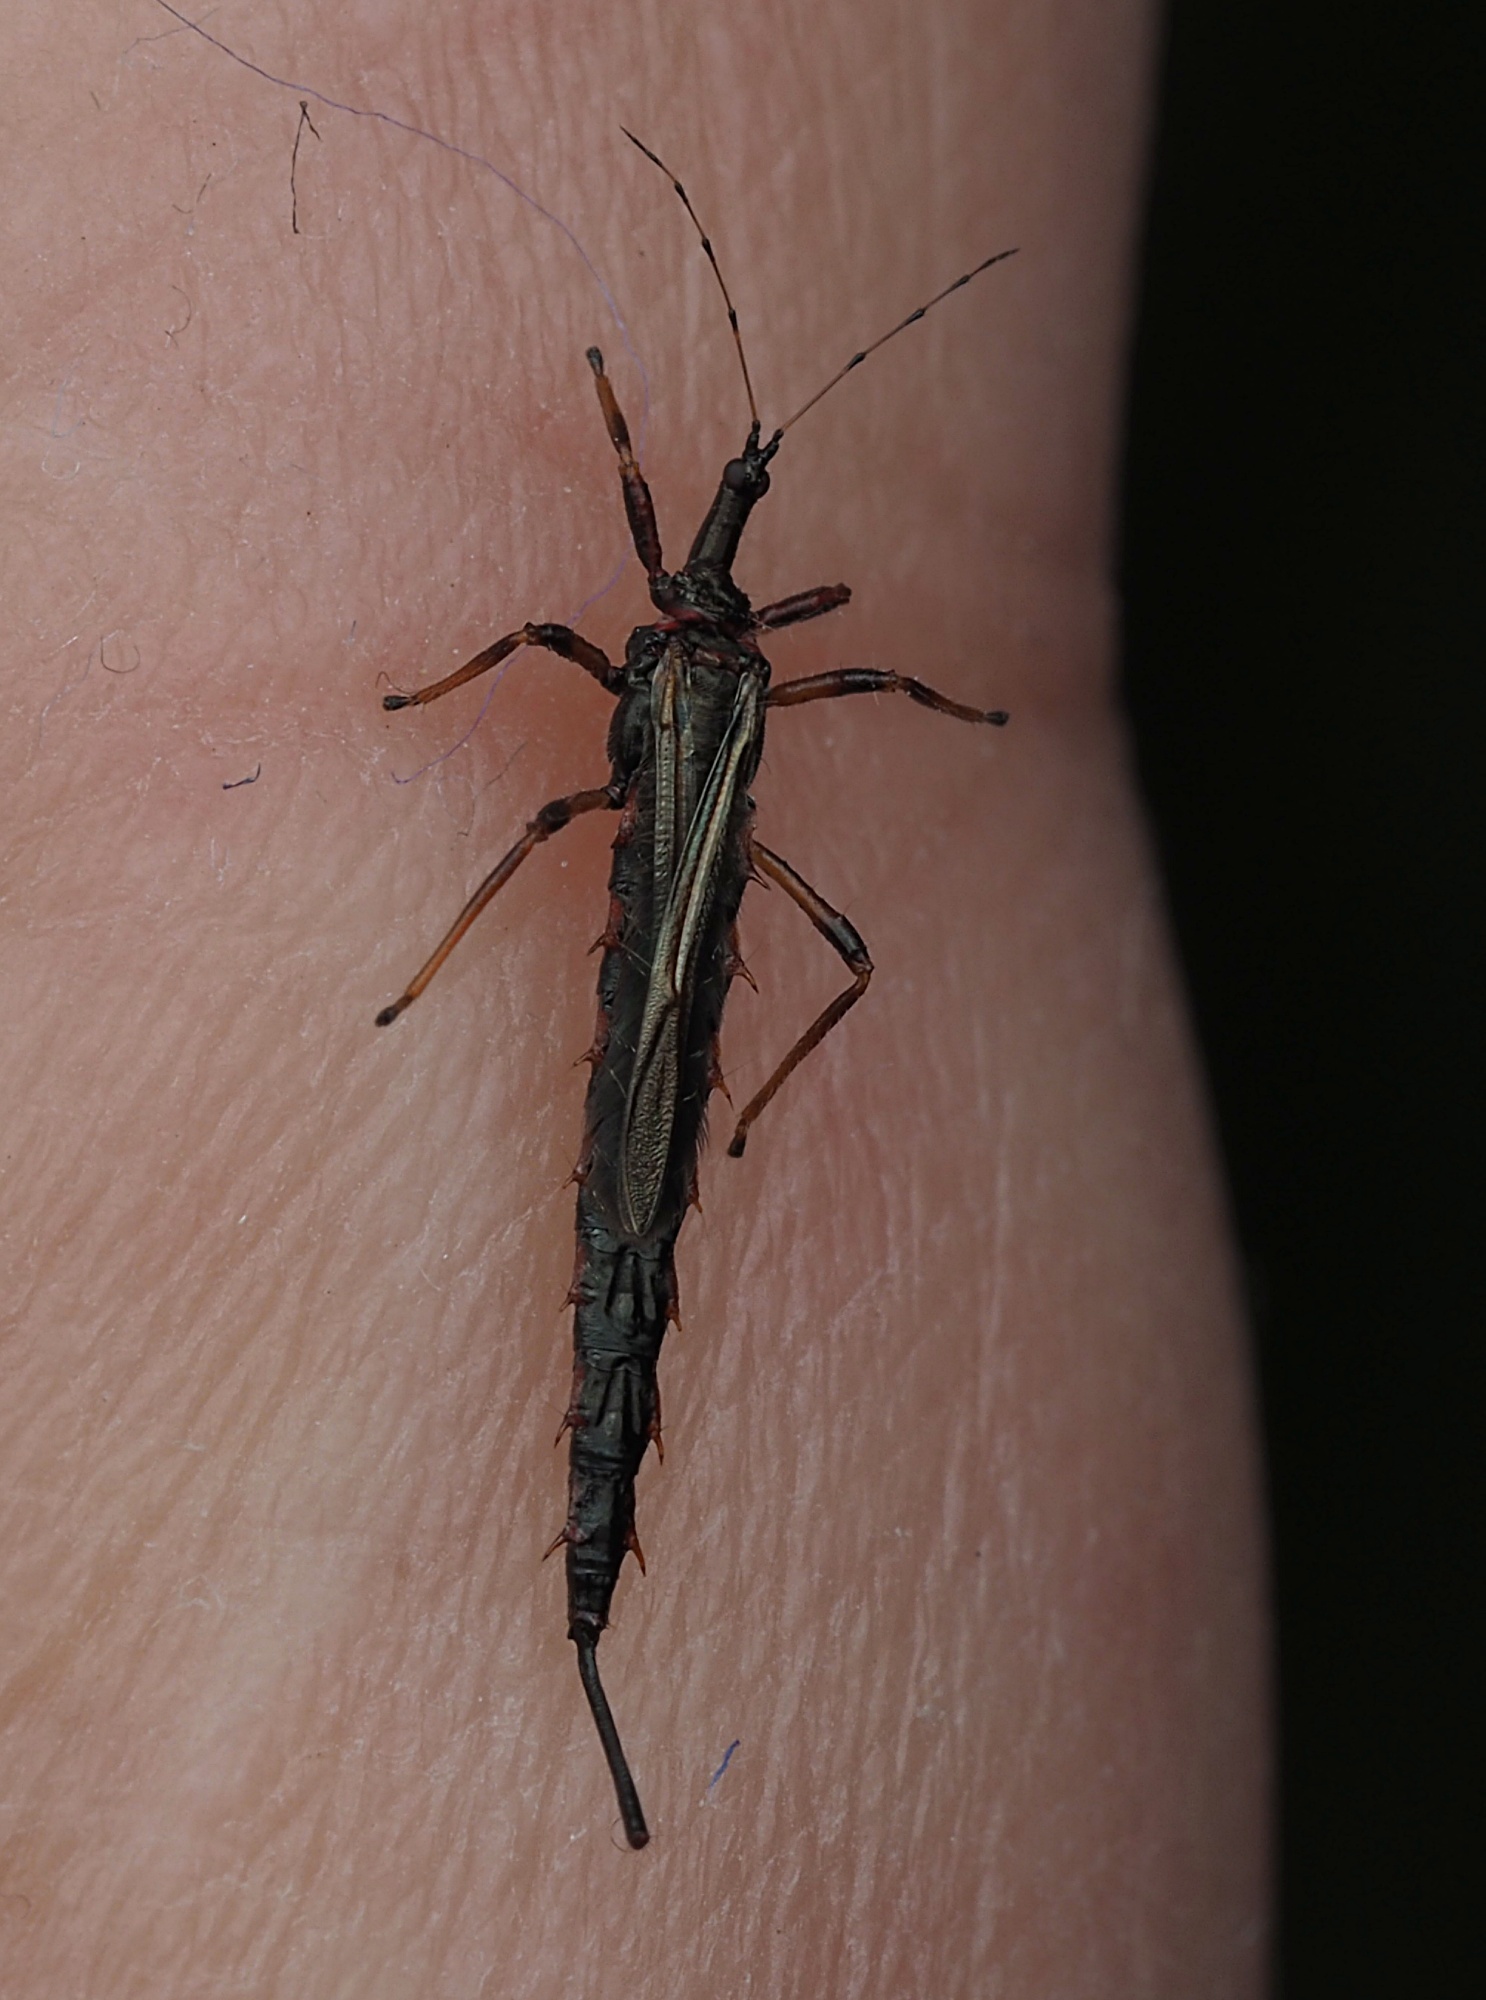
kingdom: Animalia
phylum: Arthropoda
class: Insecta
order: Thysanoptera
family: Phlaeothripidae
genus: Idolothrips
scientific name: Idolothrips spectrum
